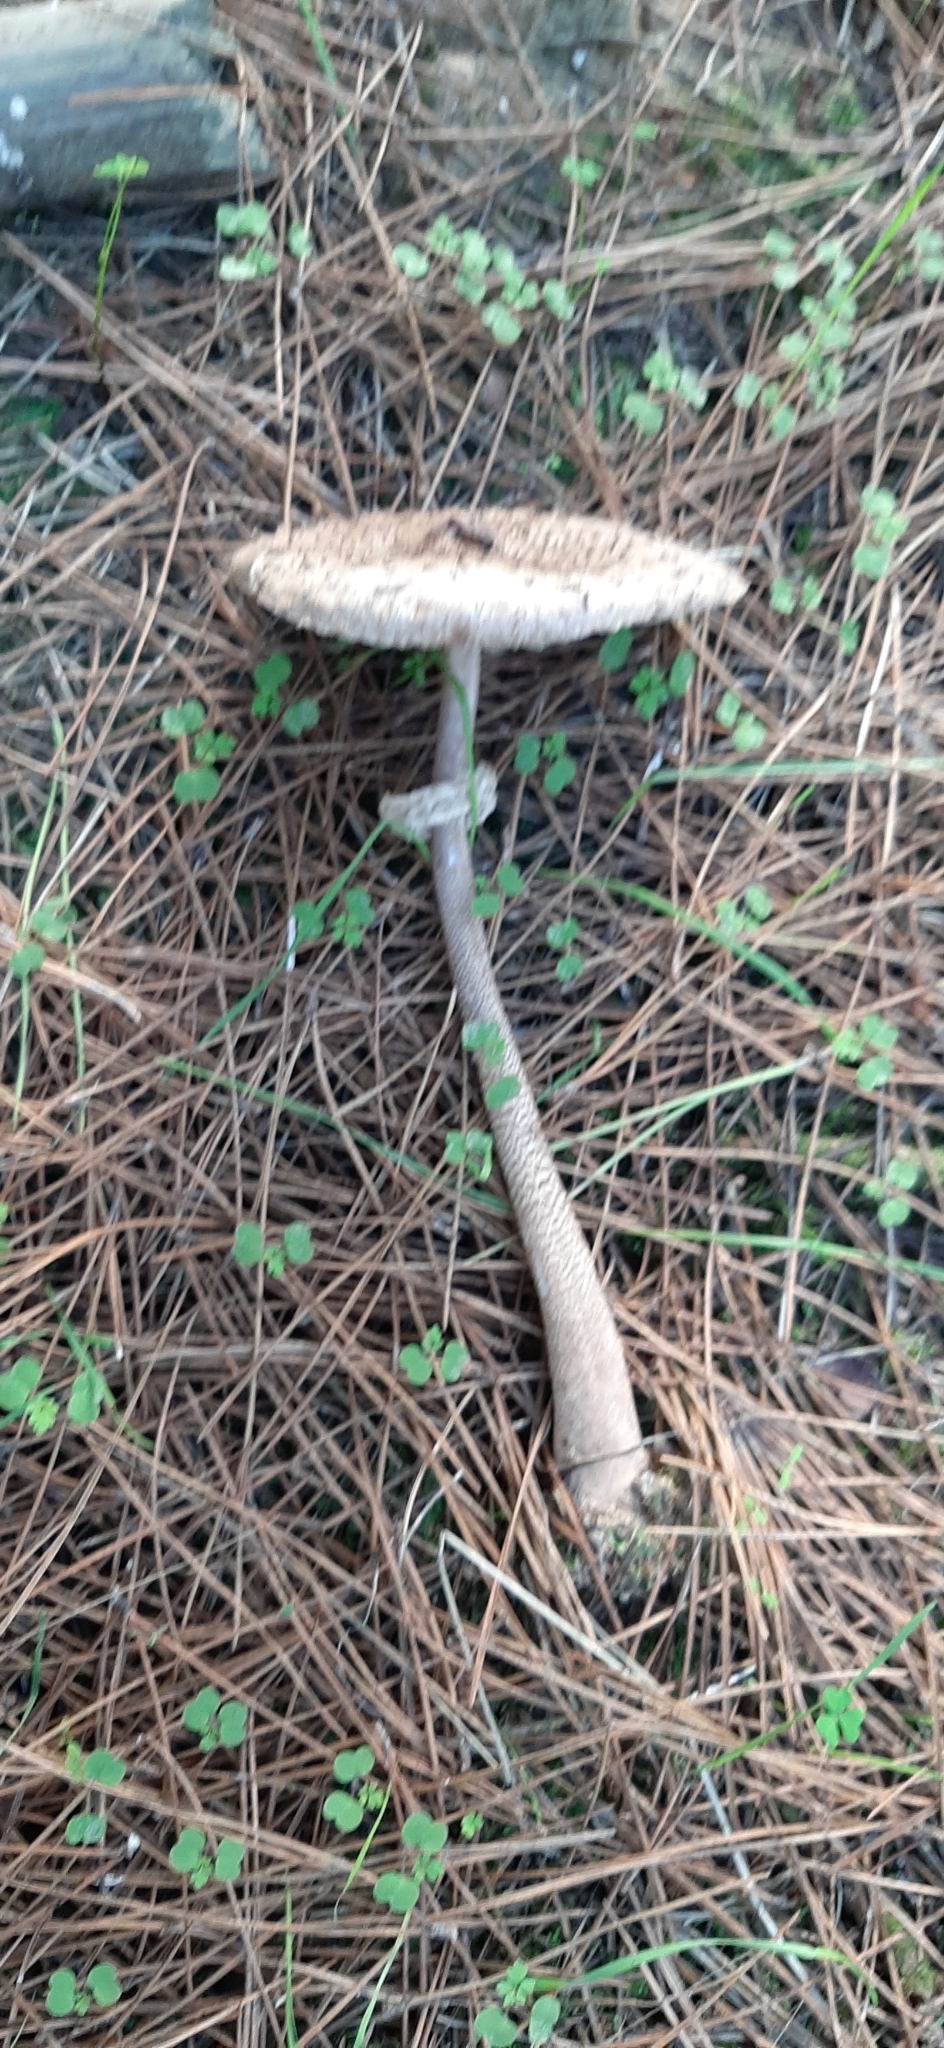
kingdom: Fungi
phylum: Basidiomycota
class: Agaricomycetes
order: Agaricales
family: Agaricaceae
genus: Macrolepiota
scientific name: Macrolepiota procera
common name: Parasol
